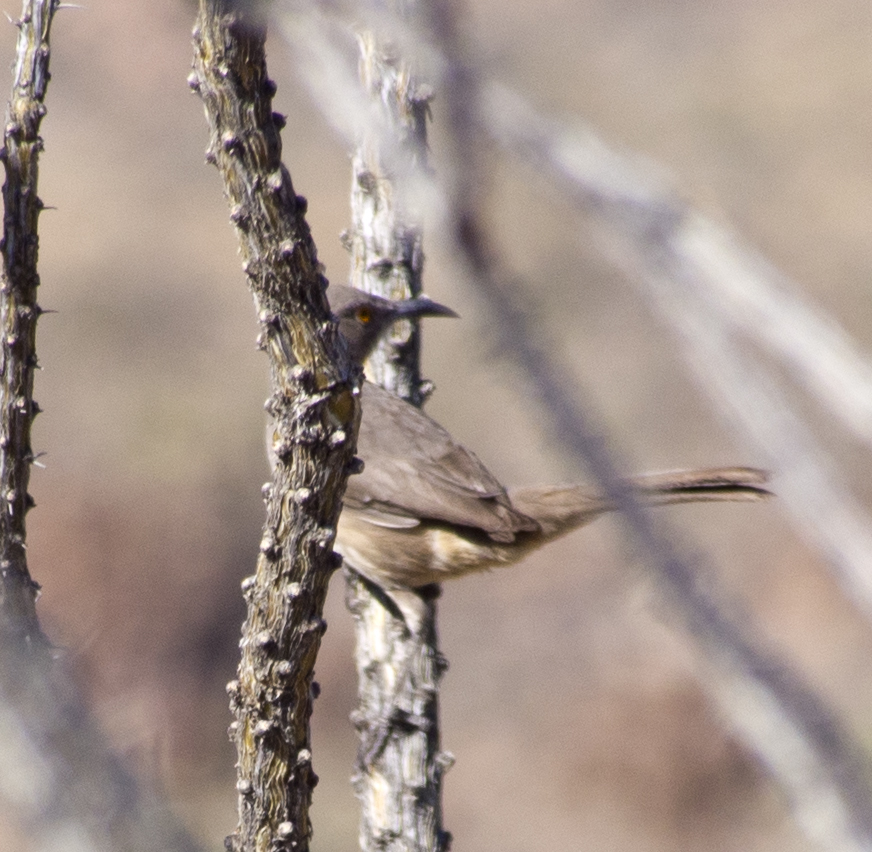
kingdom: Animalia
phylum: Chordata
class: Aves
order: Passeriformes
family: Mimidae
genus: Toxostoma
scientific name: Toxostoma curvirostre
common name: Curve-billed thrasher
